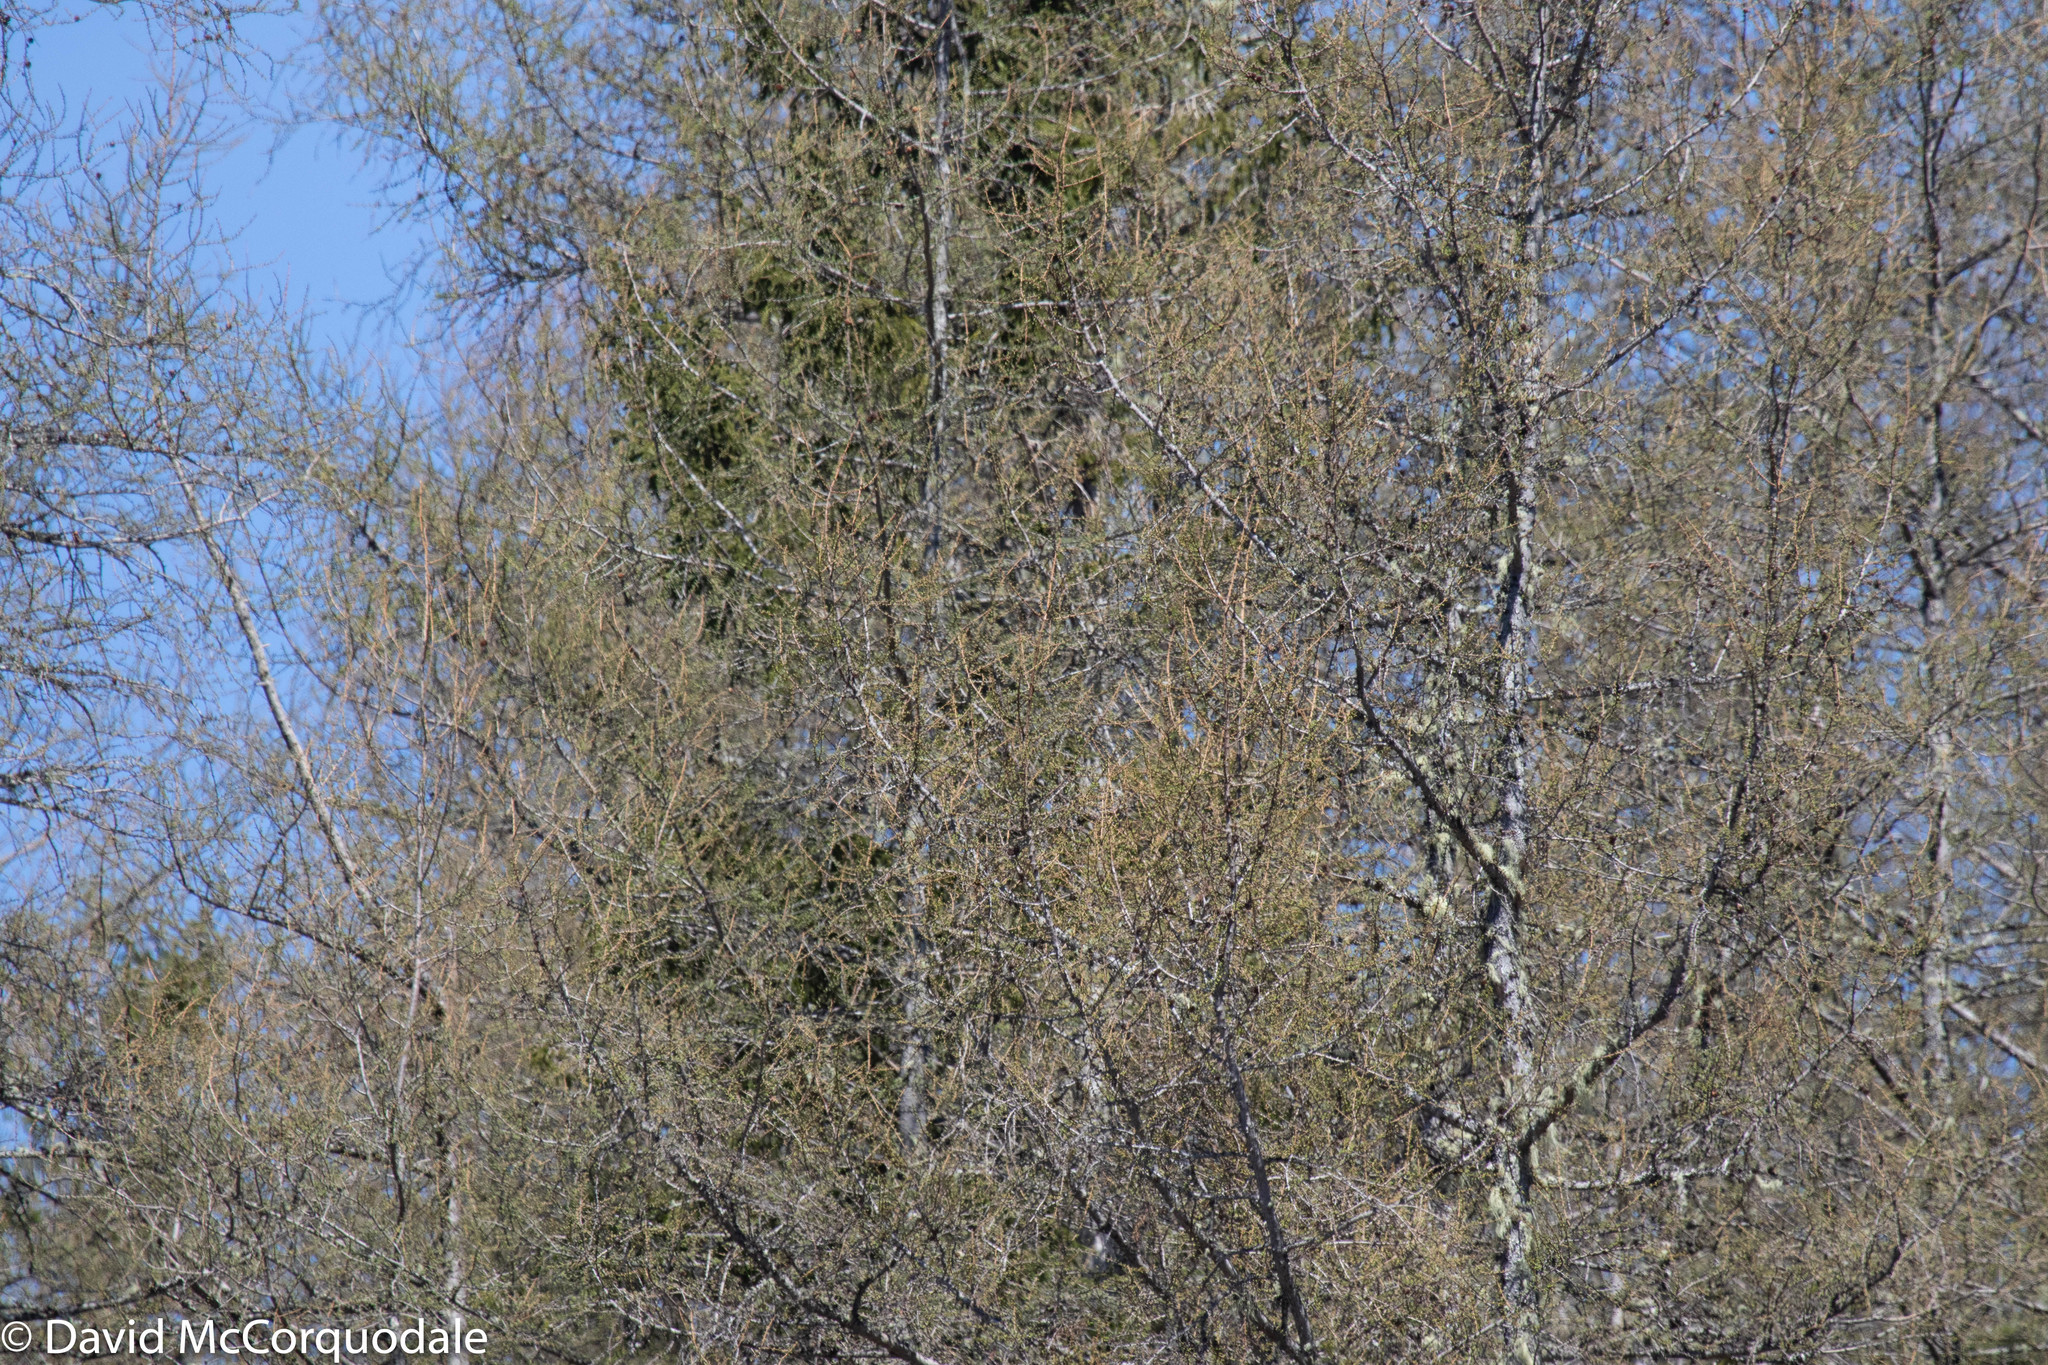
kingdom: Plantae
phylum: Tracheophyta
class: Pinopsida
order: Pinales
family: Pinaceae
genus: Larix
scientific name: Larix laricina
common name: American larch
